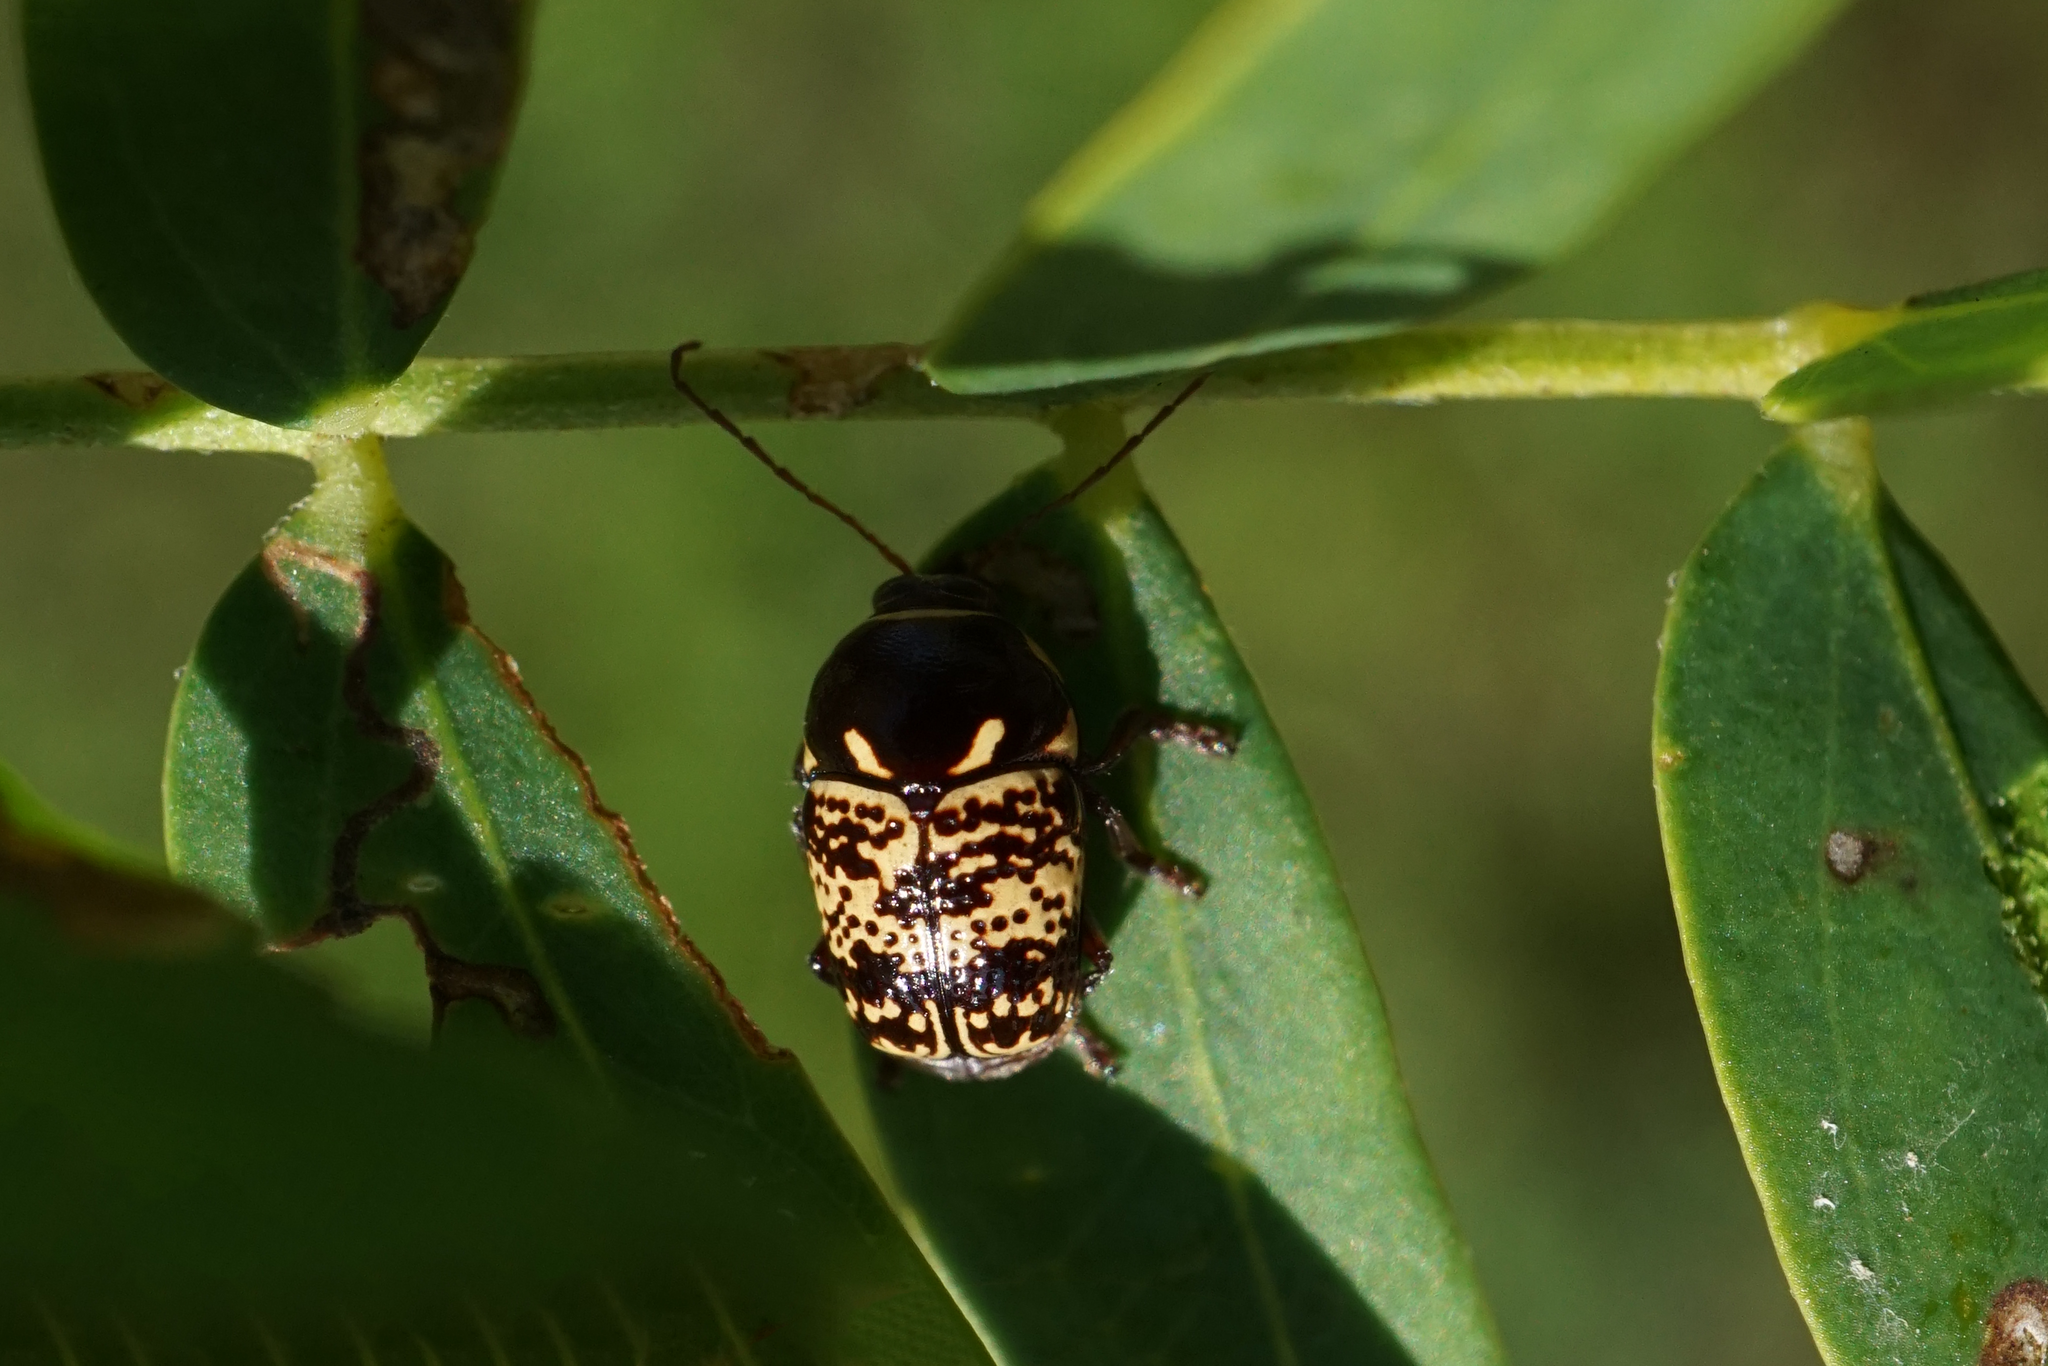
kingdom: Animalia
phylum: Arthropoda
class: Insecta
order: Coleoptera
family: Chrysomelidae
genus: Cryptocephalus
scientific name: Cryptocephalus irroratus
